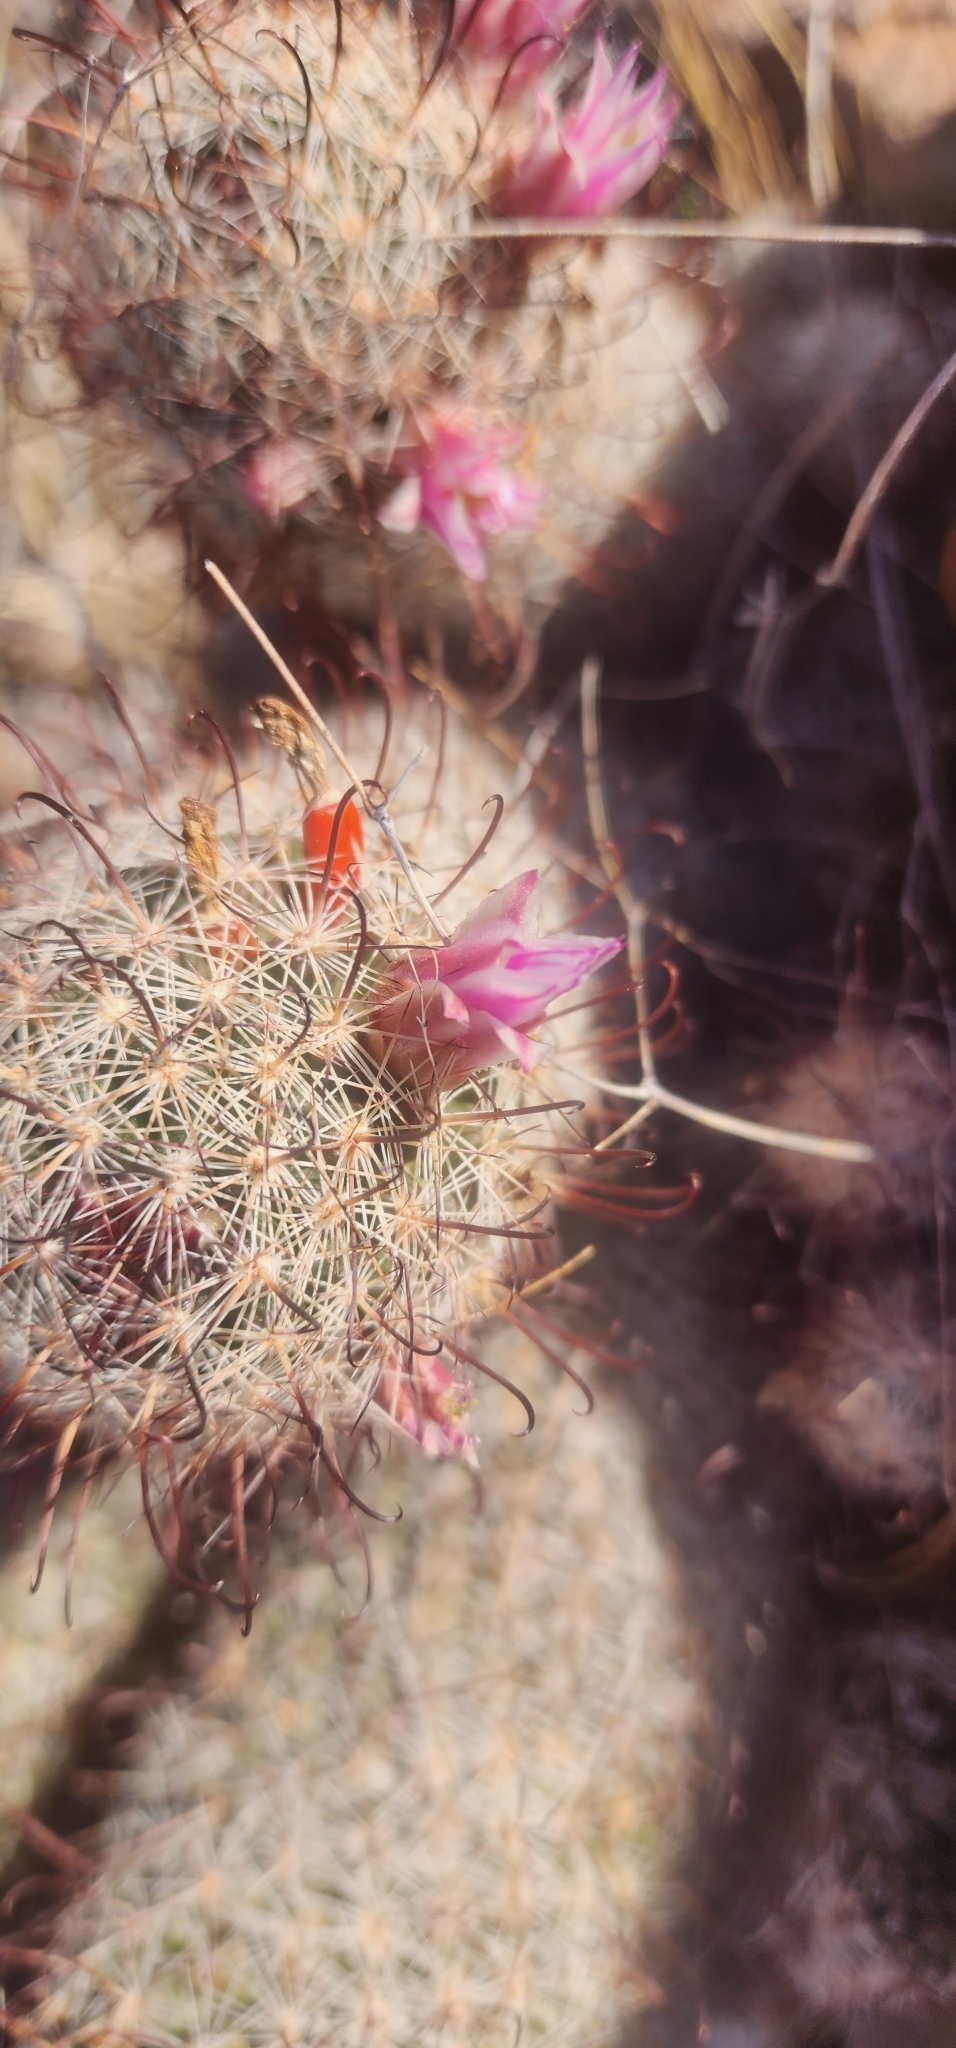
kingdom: Plantae
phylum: Tracheophyta
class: Magnoliopsida
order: Caryophyllales
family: Cactaceae
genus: Cochemiea
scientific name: Cochemiea grahamii
